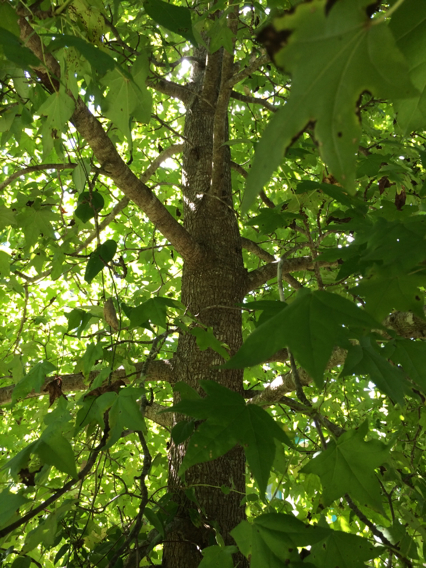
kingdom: Plantae
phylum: Tracheophyta
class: Magnoliopsida
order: Saxifragales
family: Altingiaceae
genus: Liquidambar
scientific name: Liquidambar styraciflua
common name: Sweet gum
